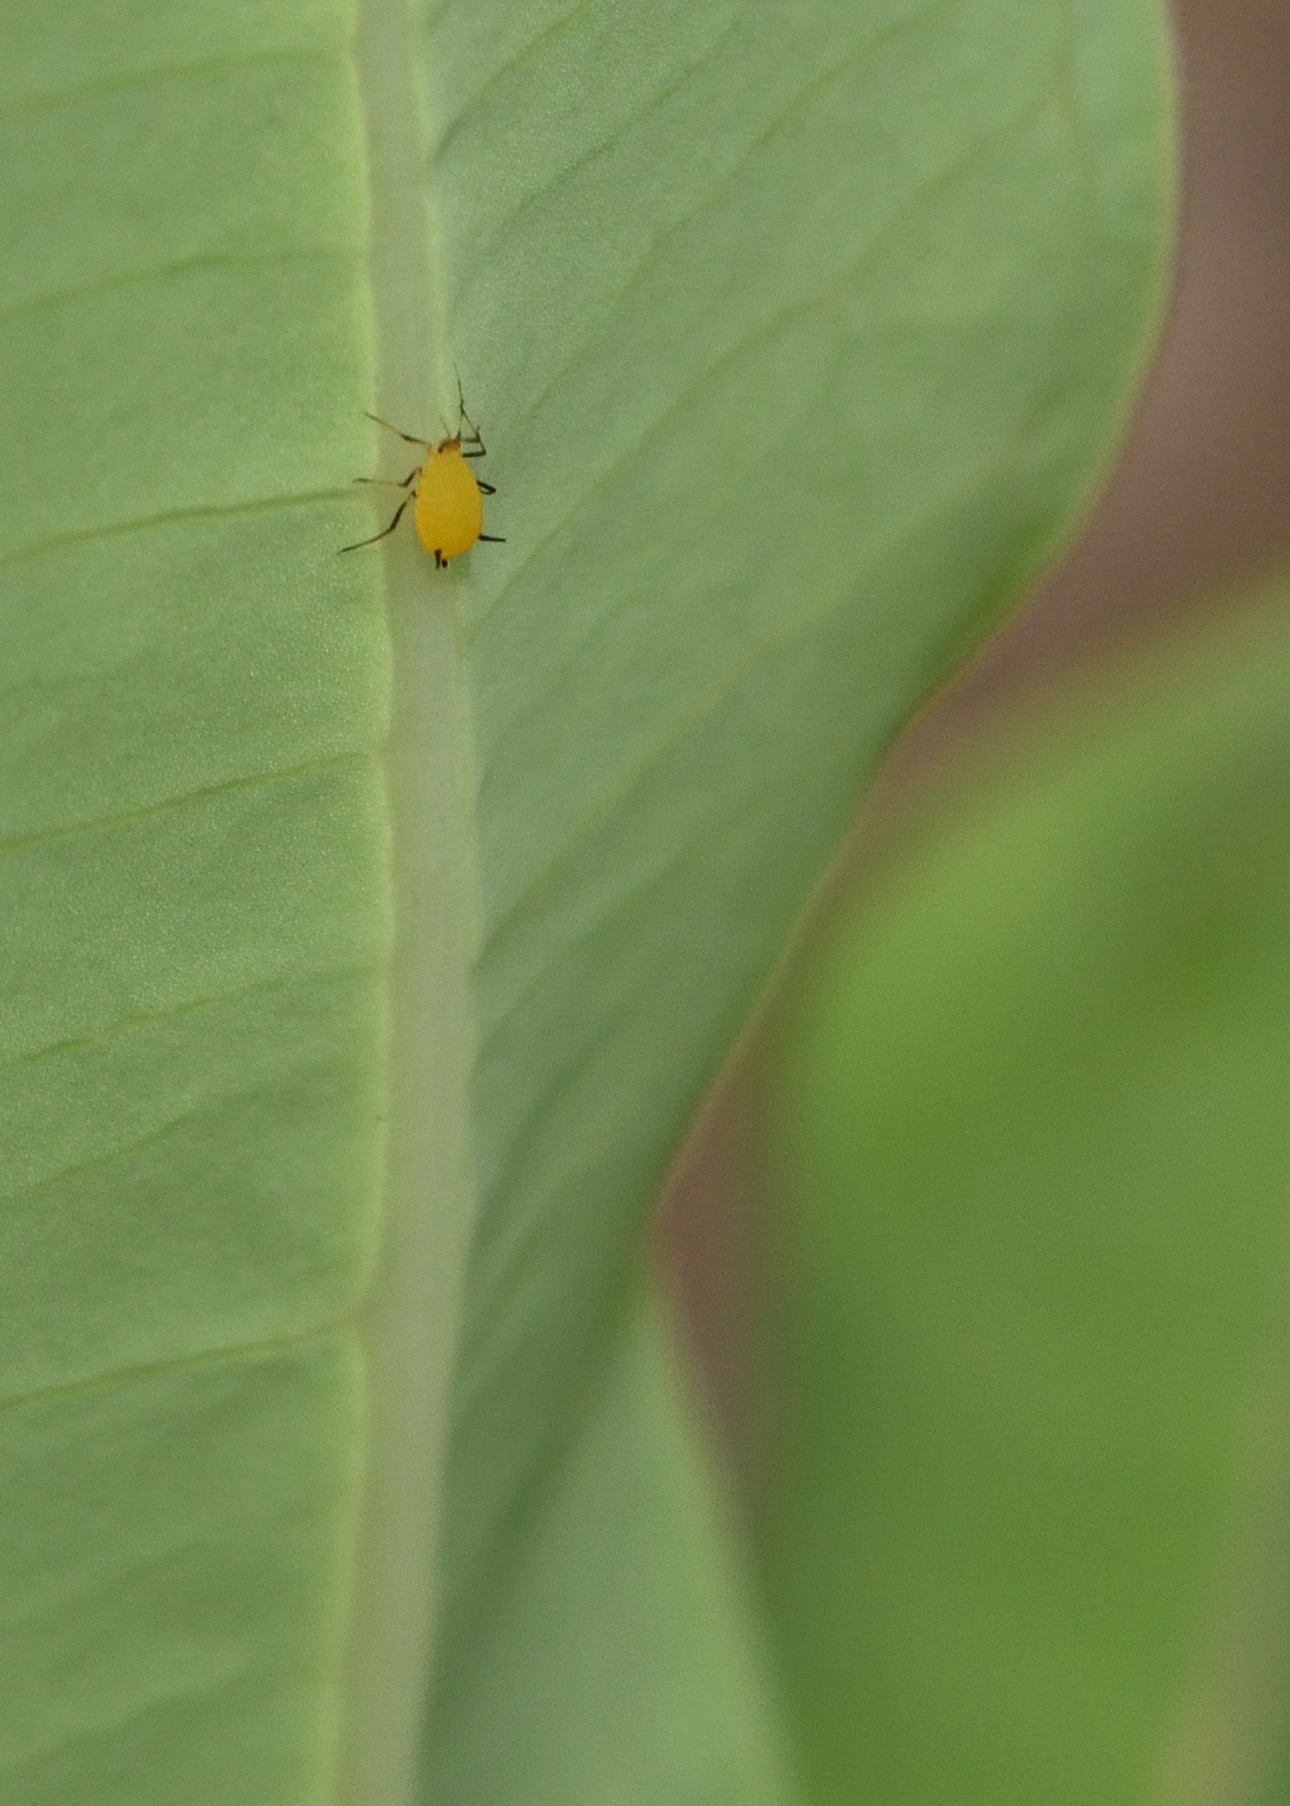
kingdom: Animalia
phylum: Arthropoda
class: Insecta
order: Hemiptera
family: Aphididae
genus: Aphis
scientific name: Aphis nerii
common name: Oleander aphid
